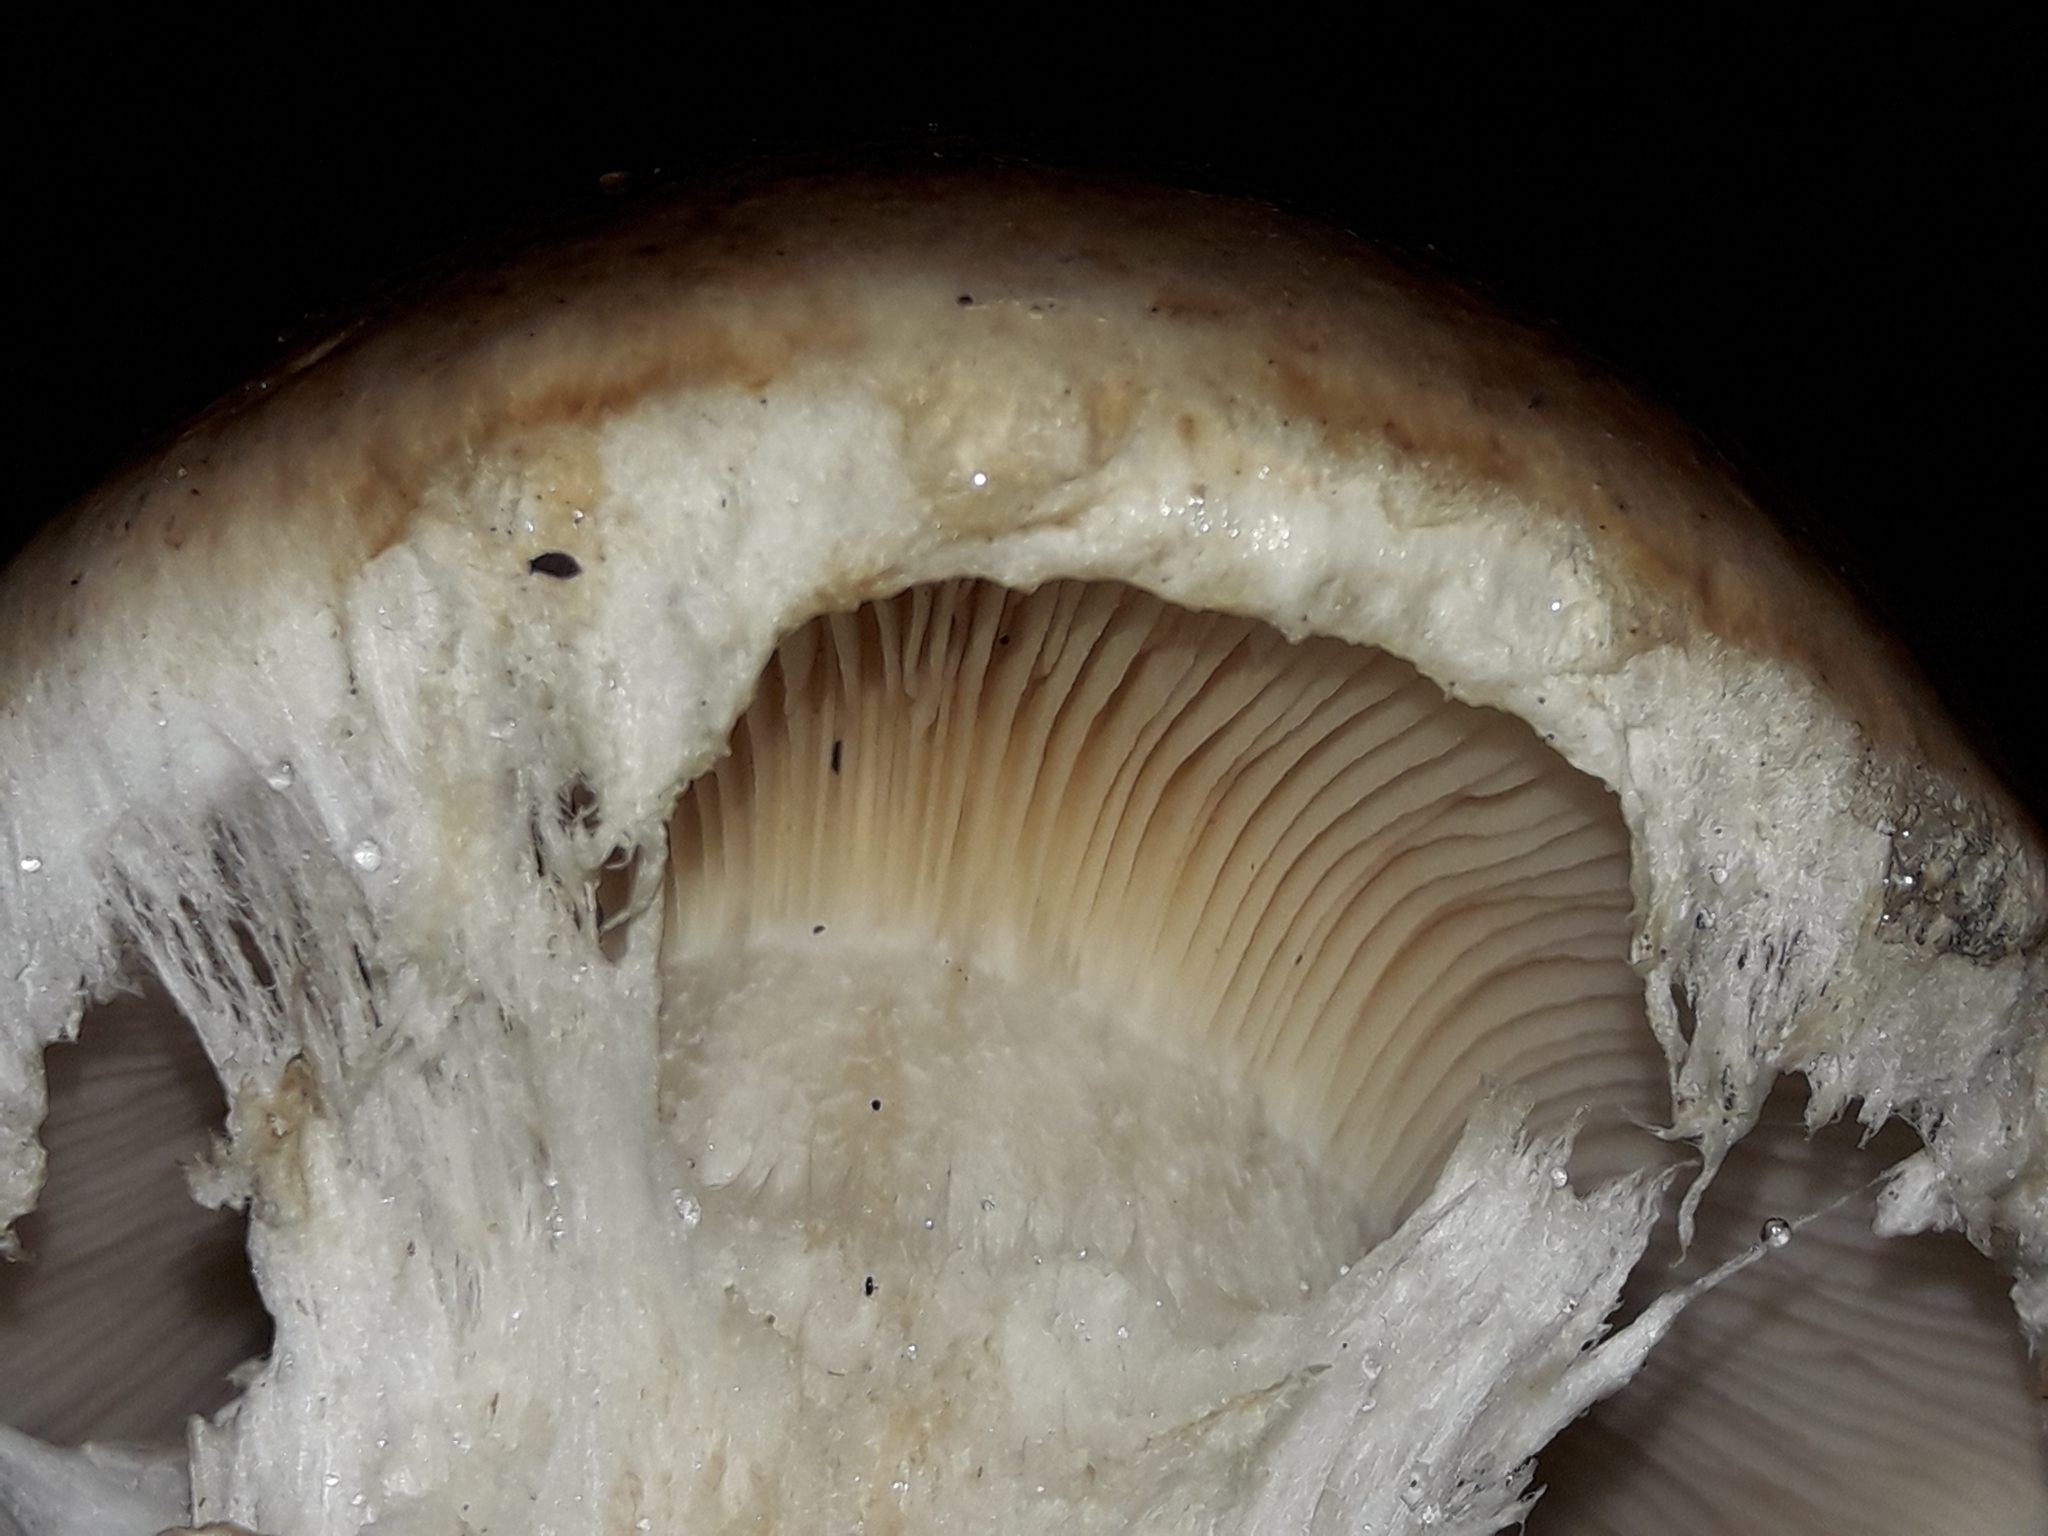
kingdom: Fungi
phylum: Basidiomycota
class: Agaricomycetes
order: Agaricales
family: Hymenogastraceae
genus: Hebeloma
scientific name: Hebeloma victoriense
